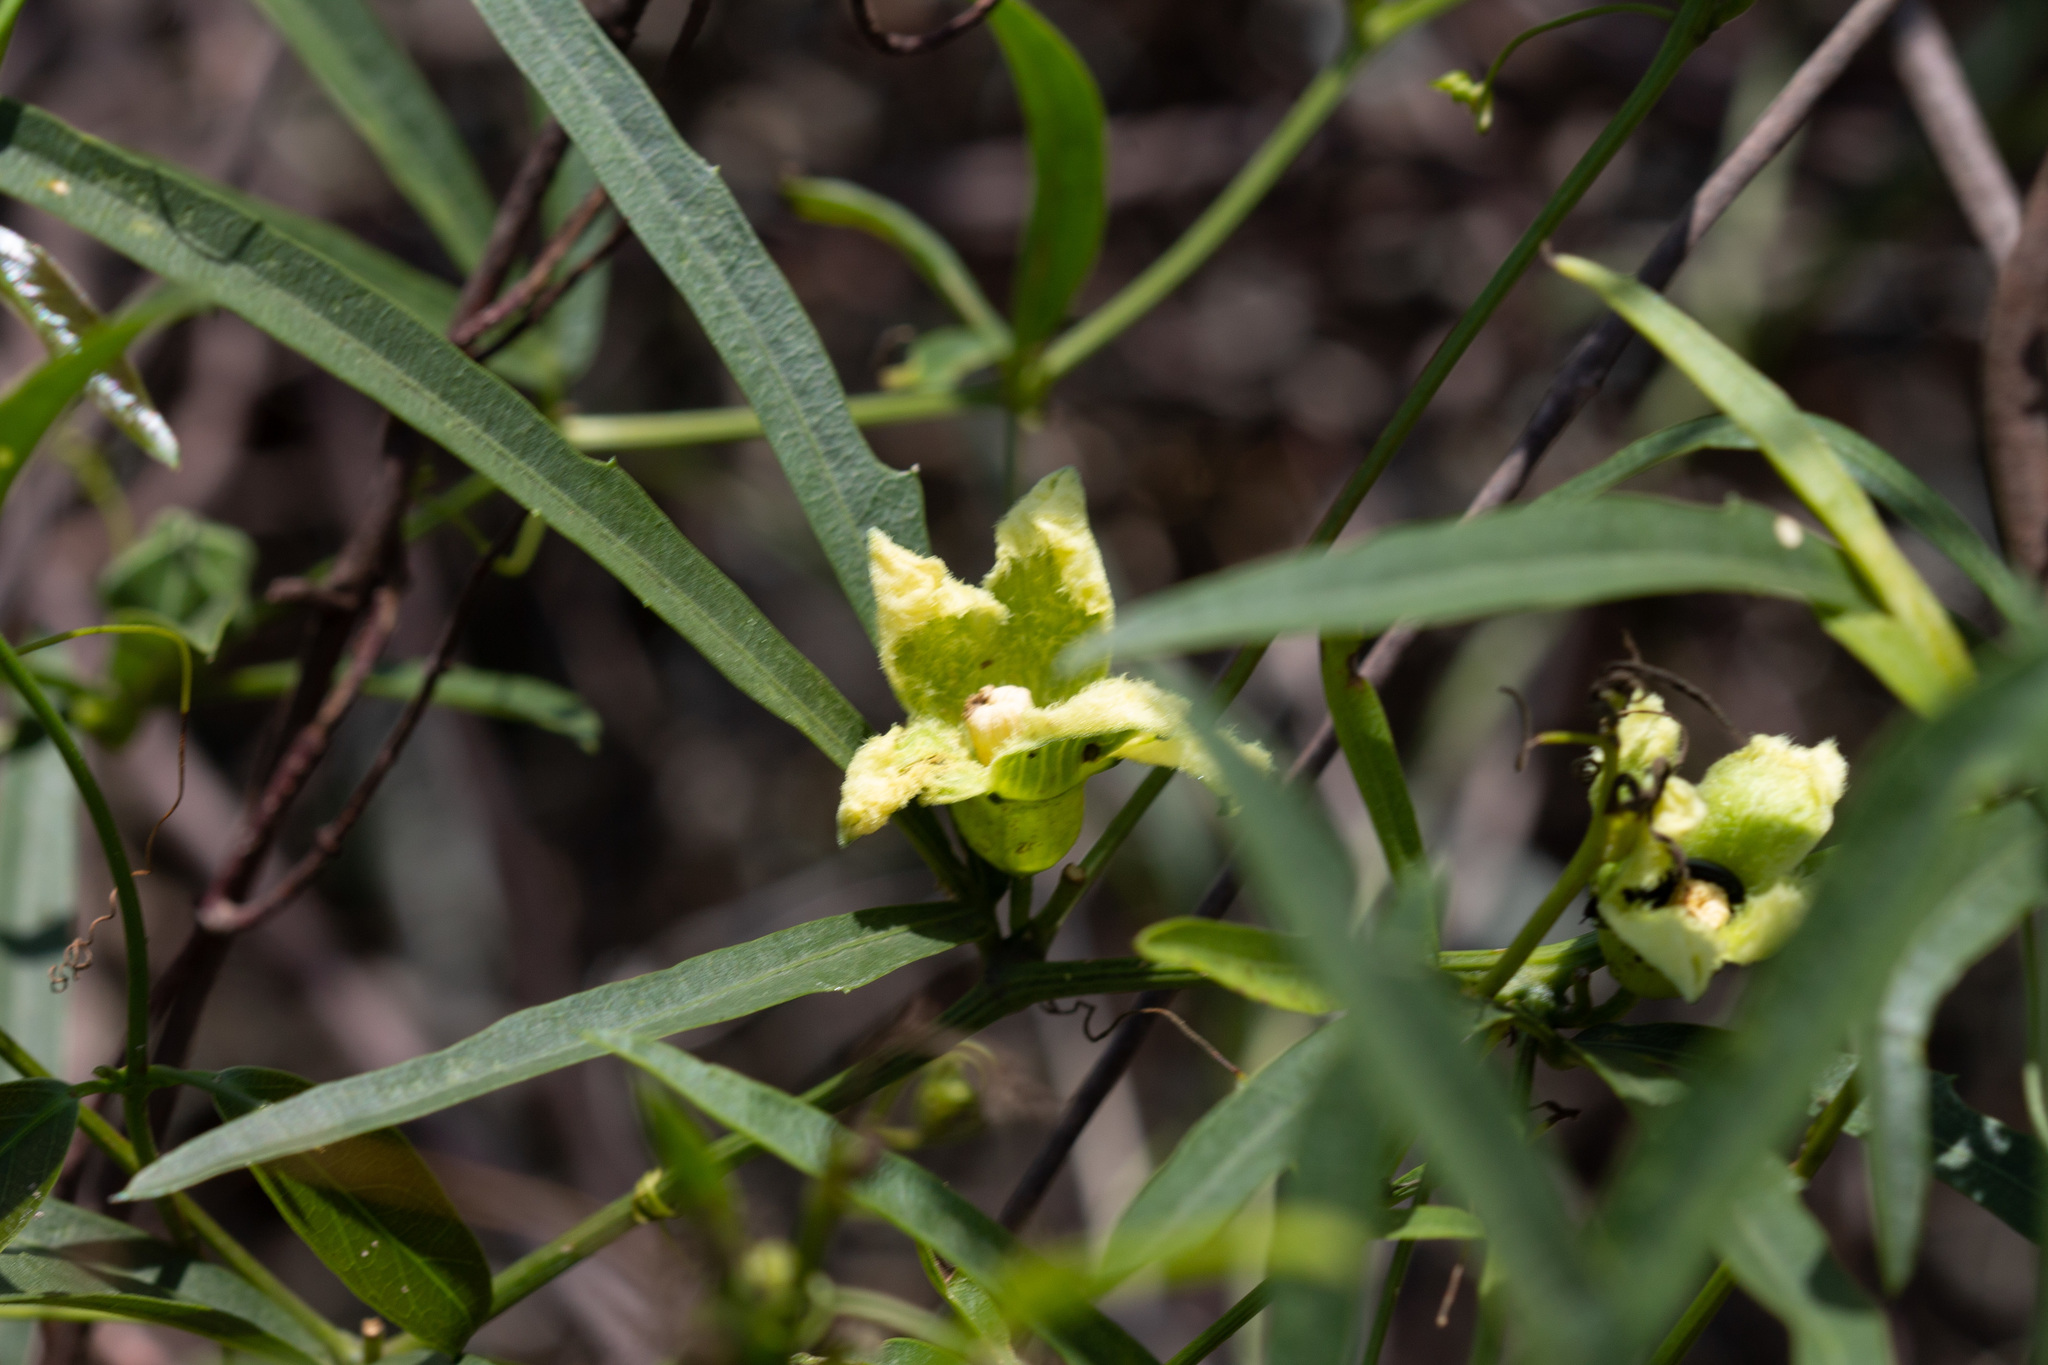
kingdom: Plantae
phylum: Tracheophyta
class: Magnoliopsida
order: Cucurbitales
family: Cucurbitaceae
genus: Cayaponia
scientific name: Cayaponia espelina
